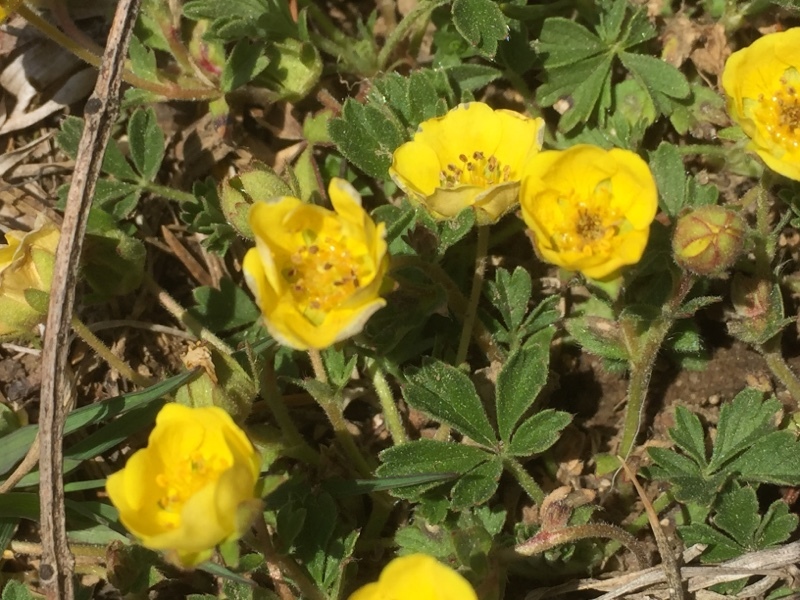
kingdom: Plantae
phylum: Tracheophyta
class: Magnoliopsida
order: Rosales
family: Rosaceae
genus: Potentilla
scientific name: Potentilla incana
